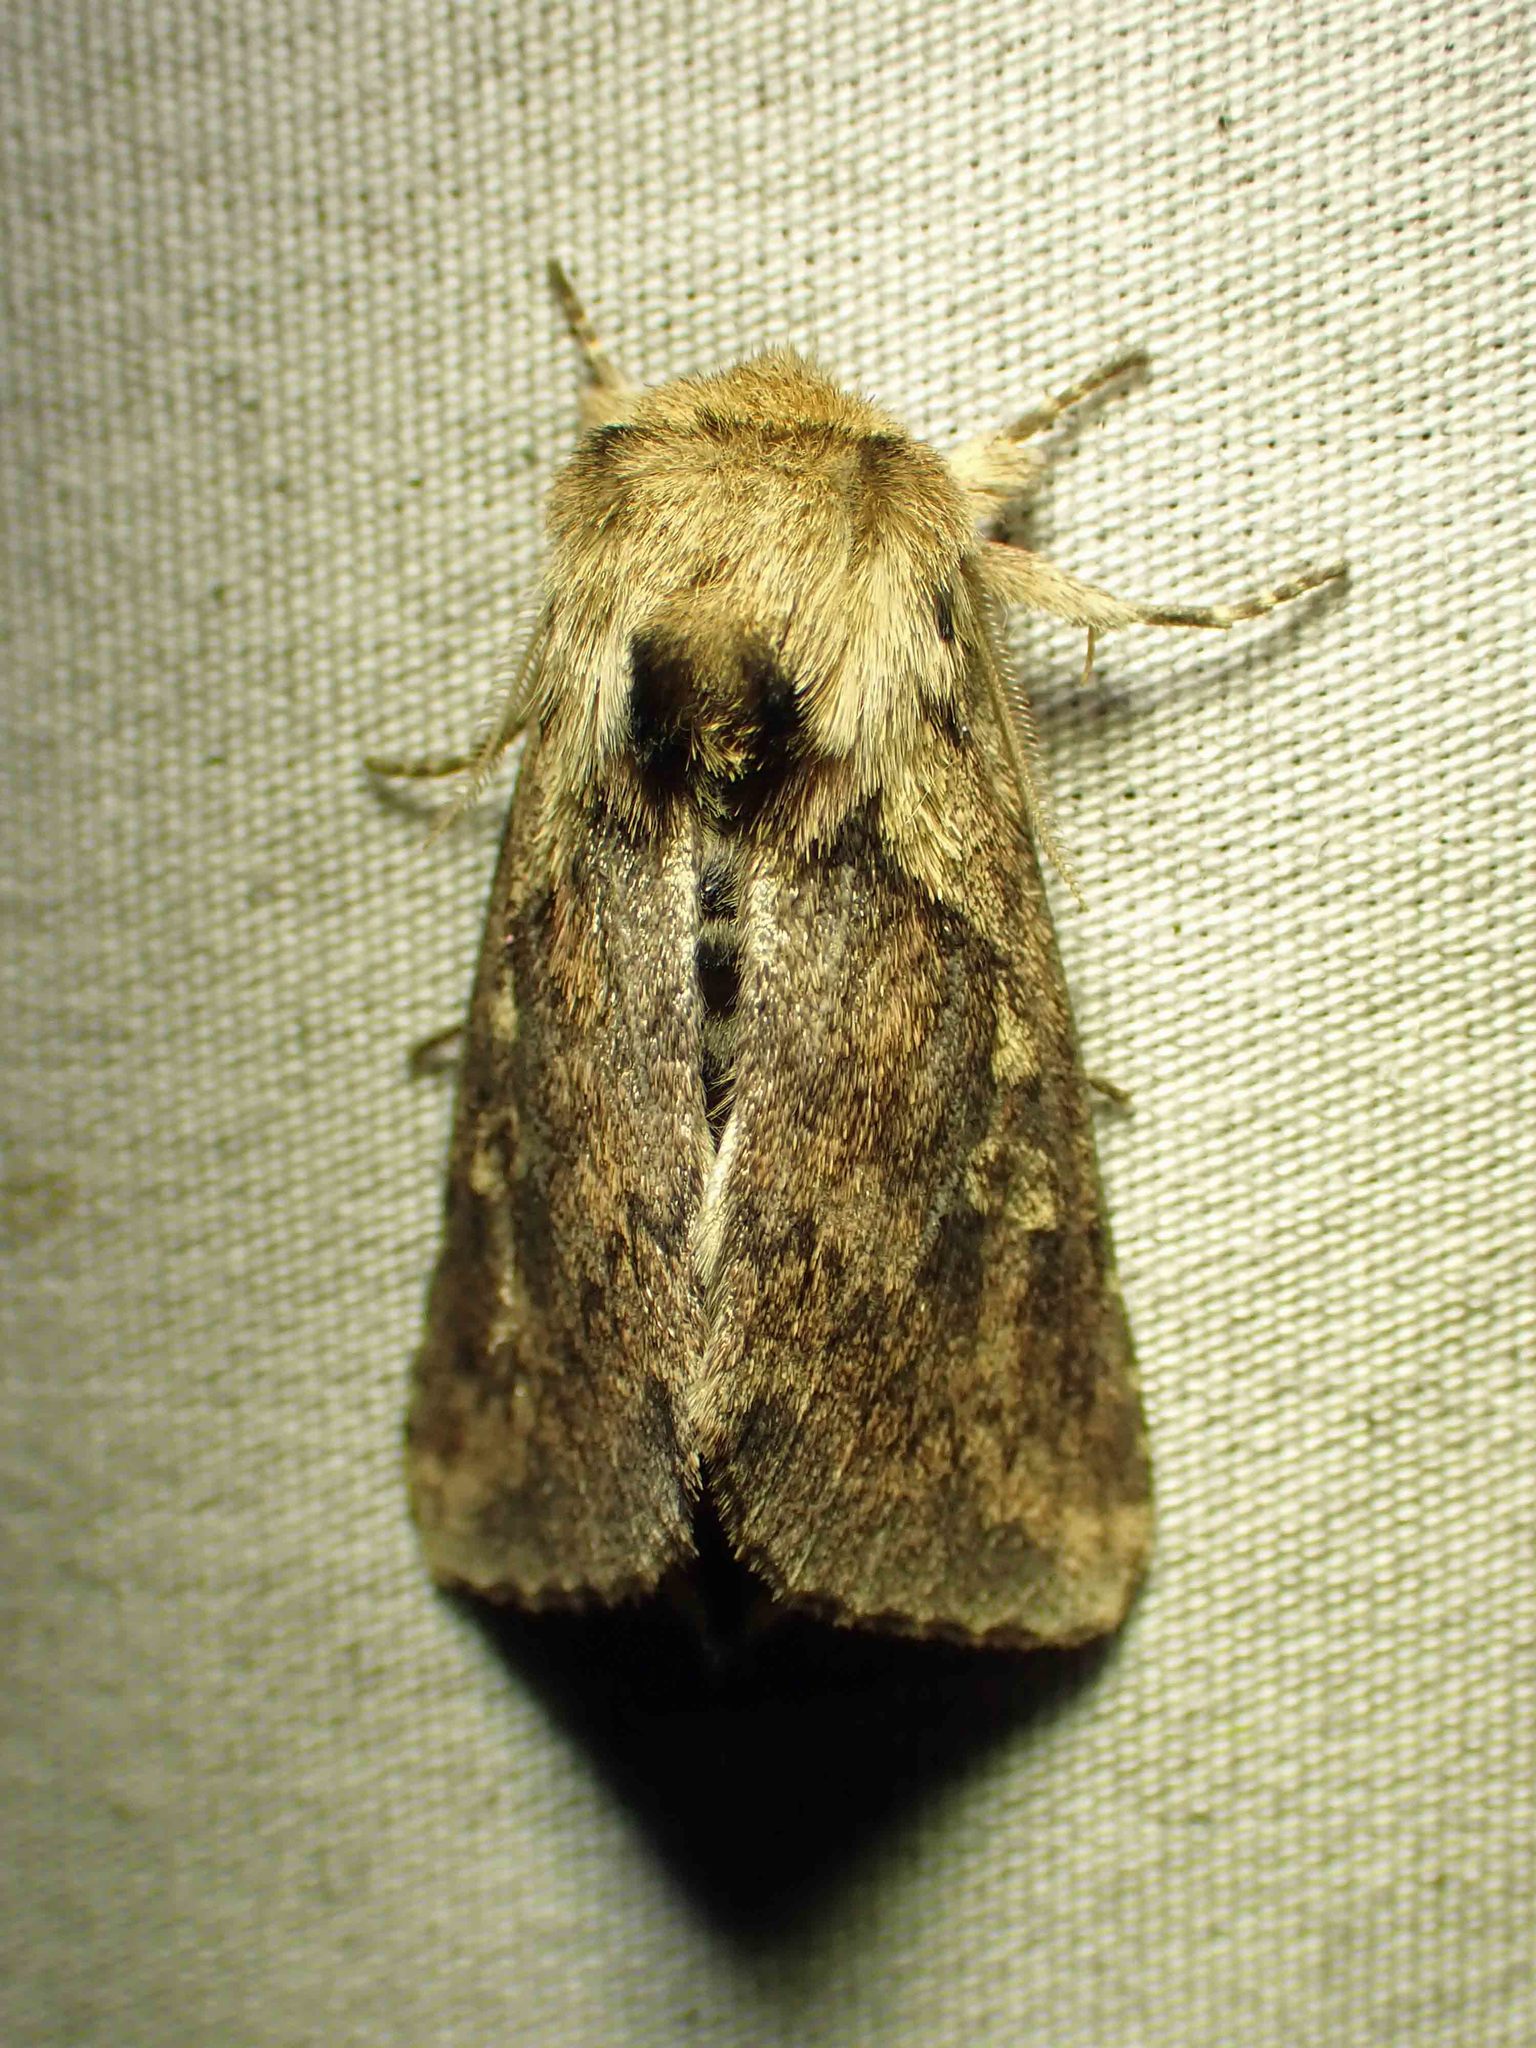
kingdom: Animalia
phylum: Arthropoda
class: Insecta
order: Lepidoptera
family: Noctuidae
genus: Bellura
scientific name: Bellura vulnifica
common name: Black-tailed diver moth
